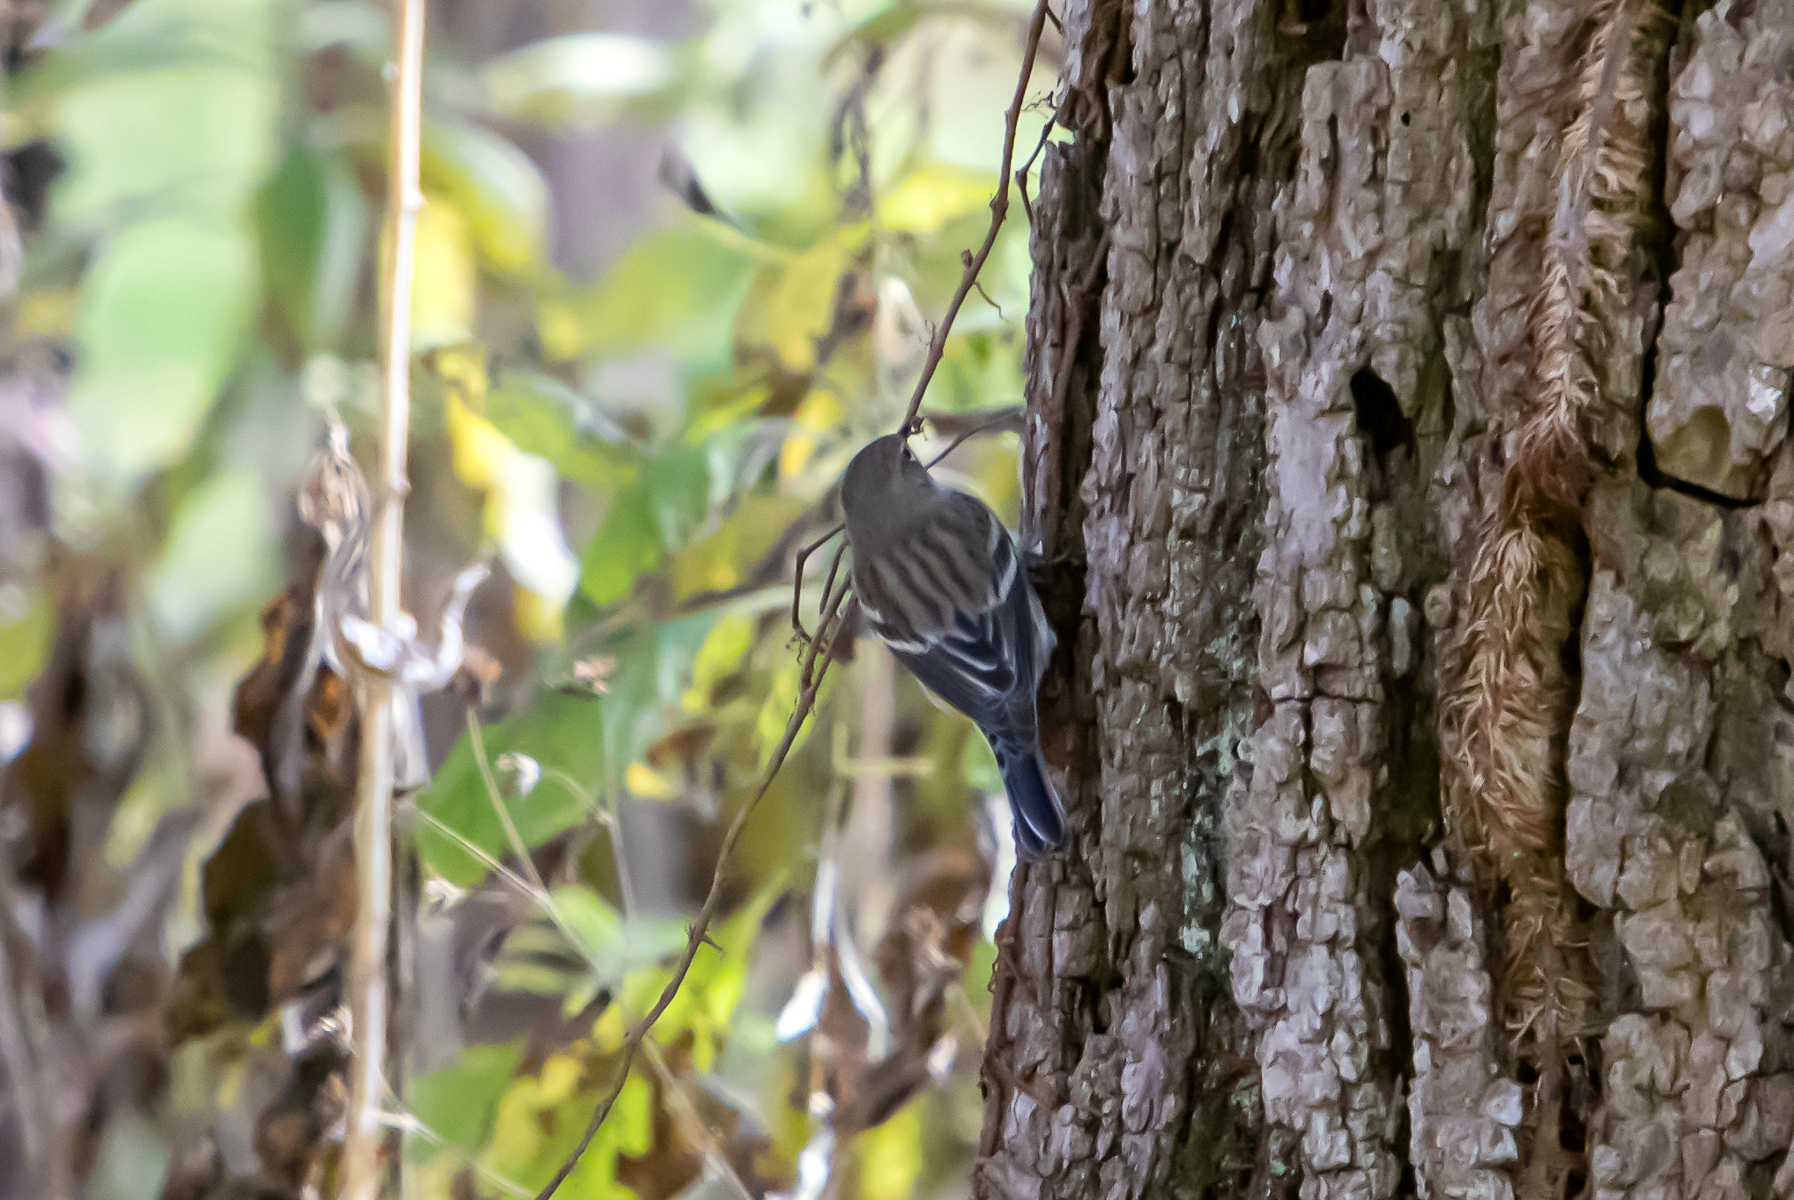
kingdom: Animalia
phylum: Chordata
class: Aves
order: Passeriformes
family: Parulidae
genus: Setophaga
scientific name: Setophaga coronata
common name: Myrtle warbler
